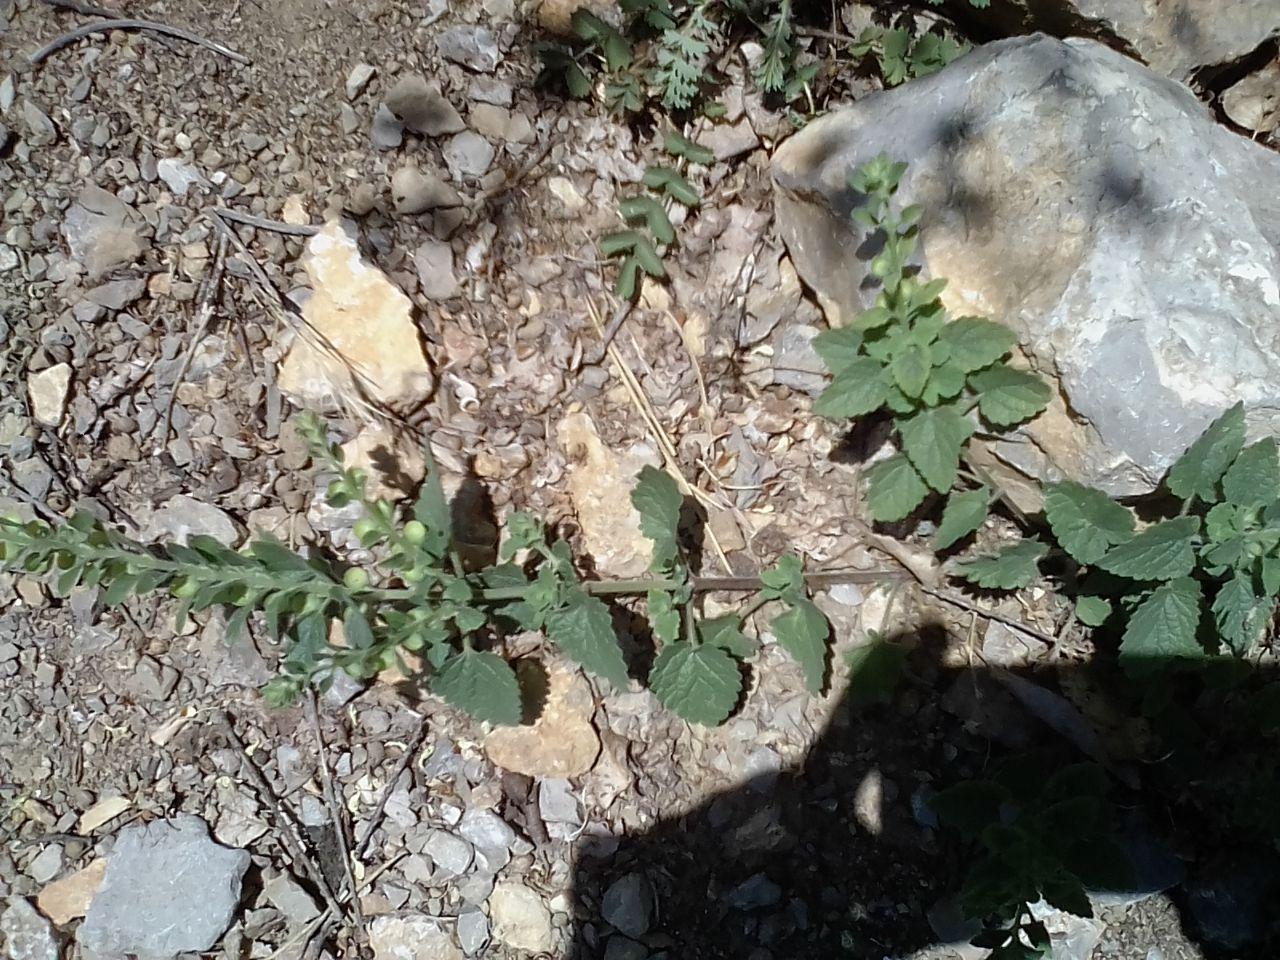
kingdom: Plantae
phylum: Tracheophyta
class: Magnoliopsida
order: Lamiales
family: Lamiaceae
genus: Scutellaria
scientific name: Scutellaria albida
